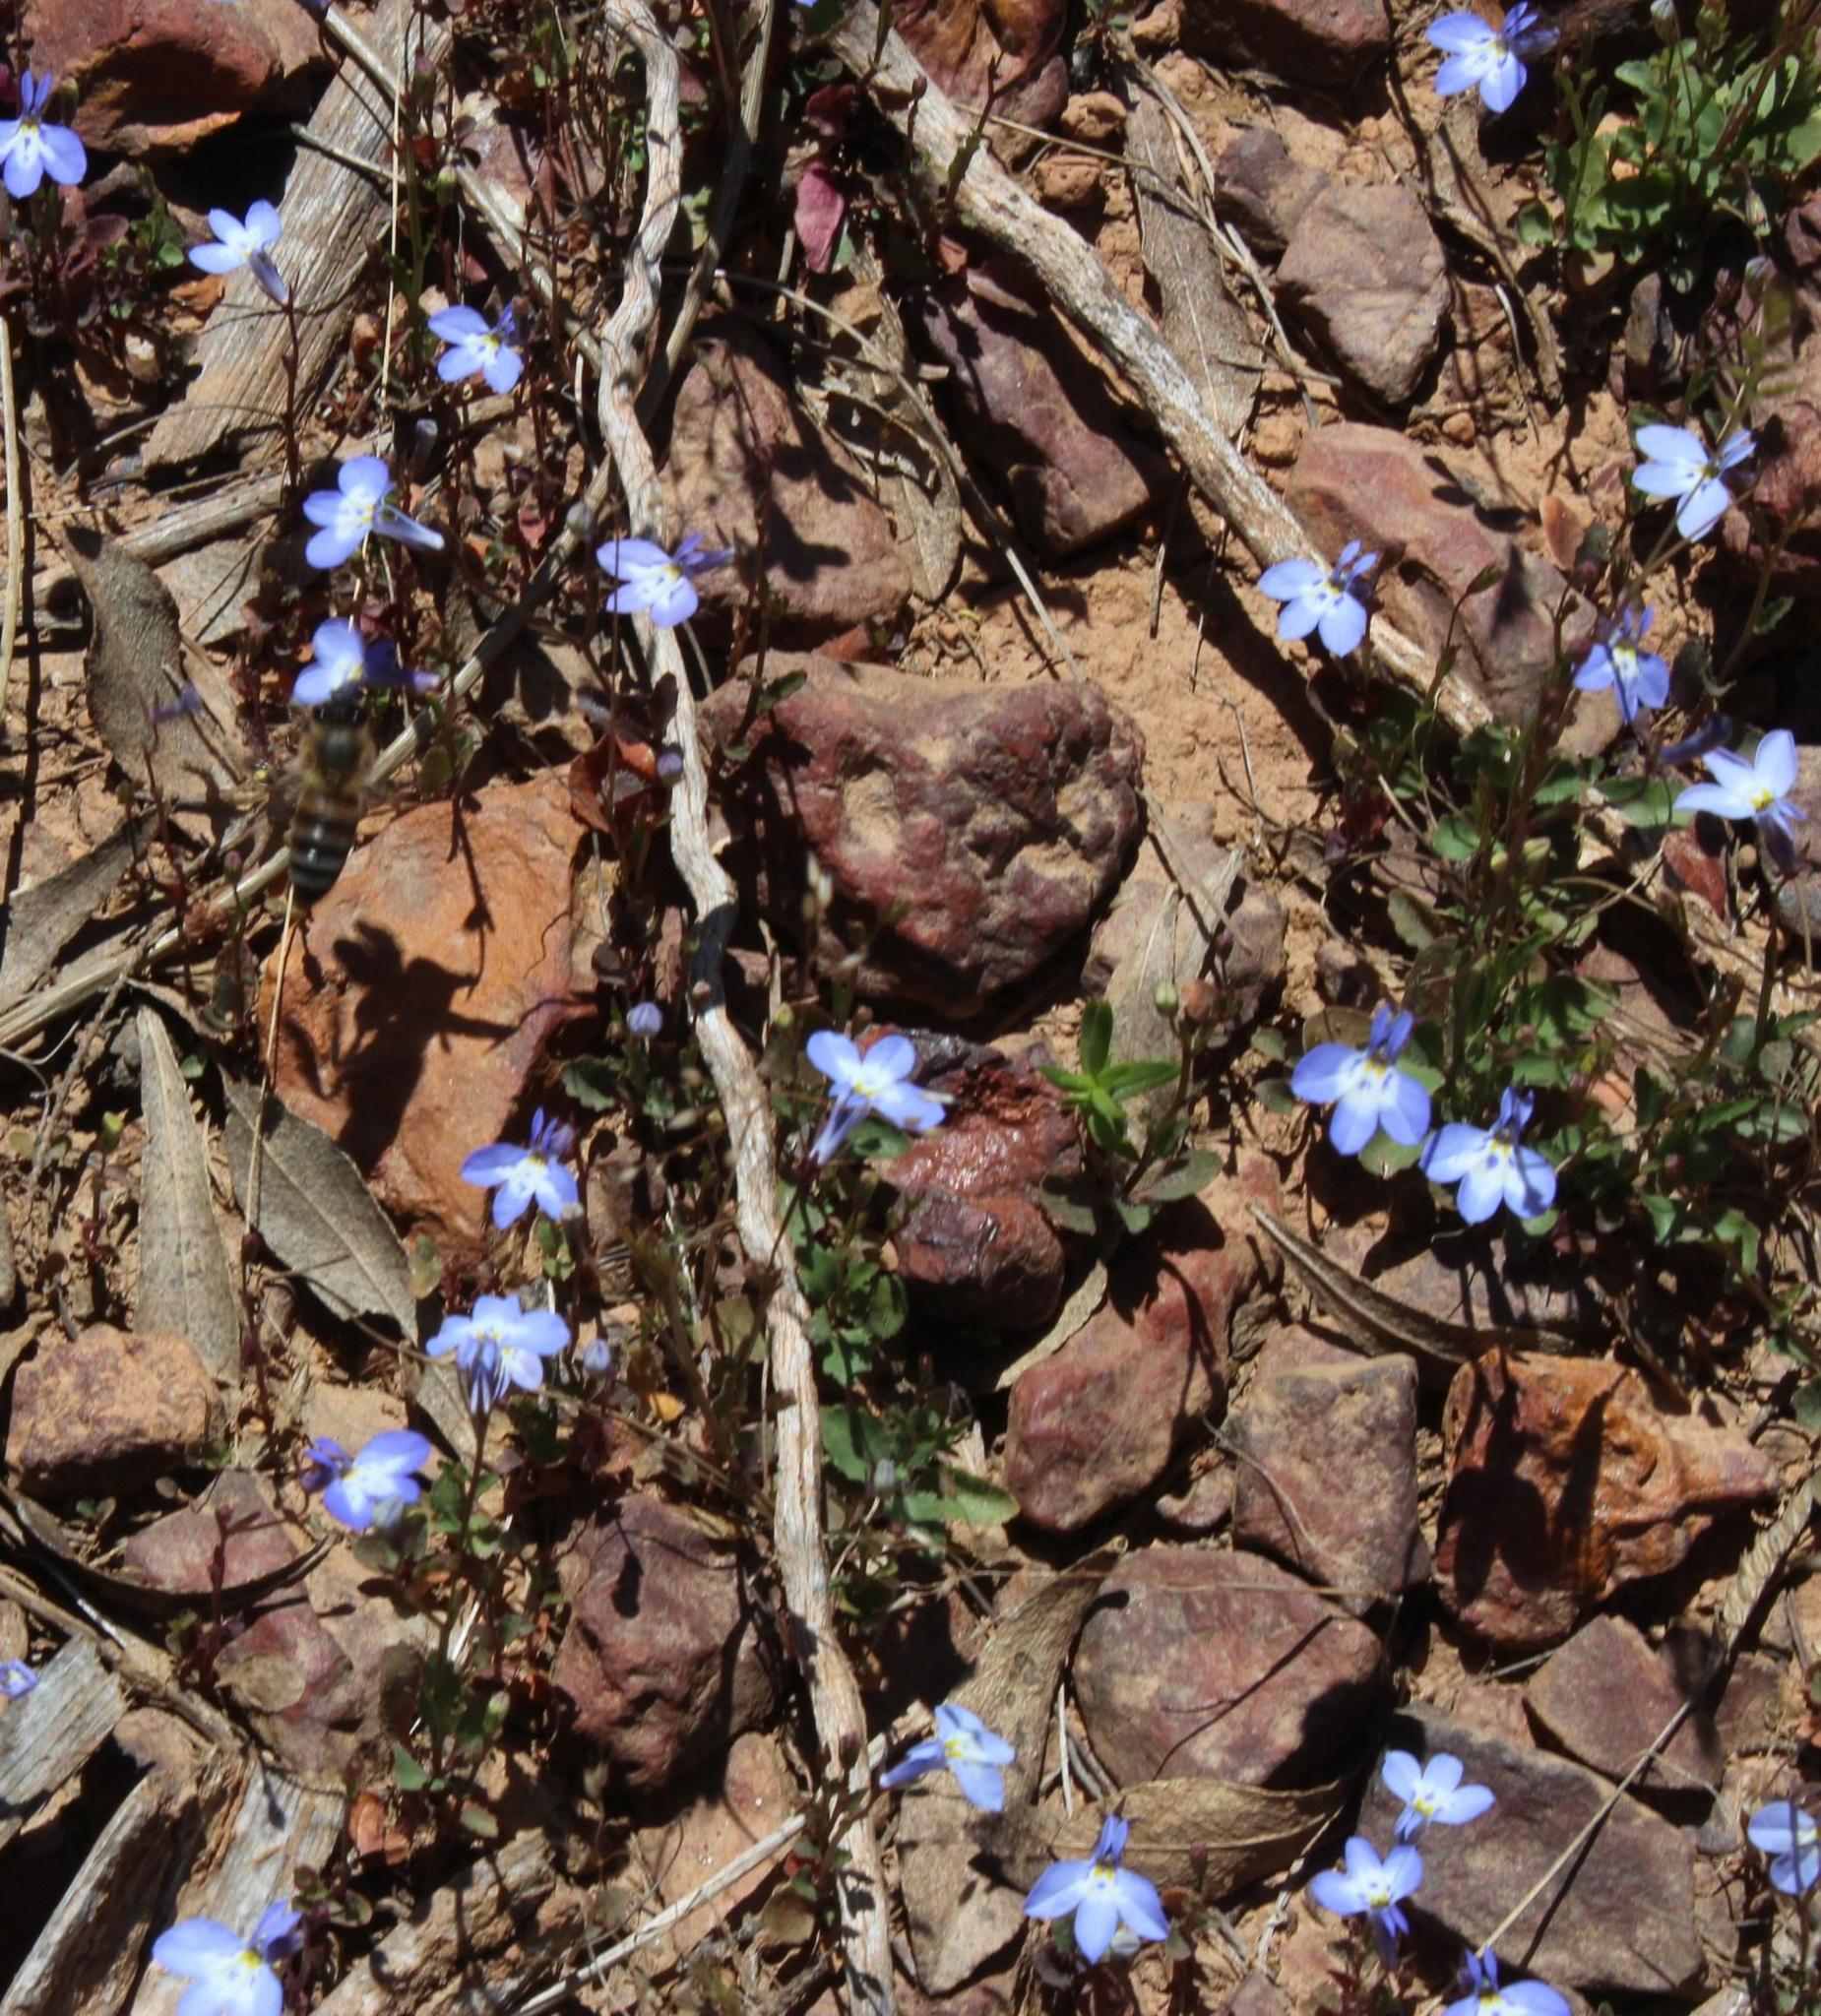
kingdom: Plantae
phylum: Tracheophyta
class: Magnoliopsida
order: Asterales
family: Campanulaceae
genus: Lobelia
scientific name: Lobelia erinus
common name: Edging lobelia
